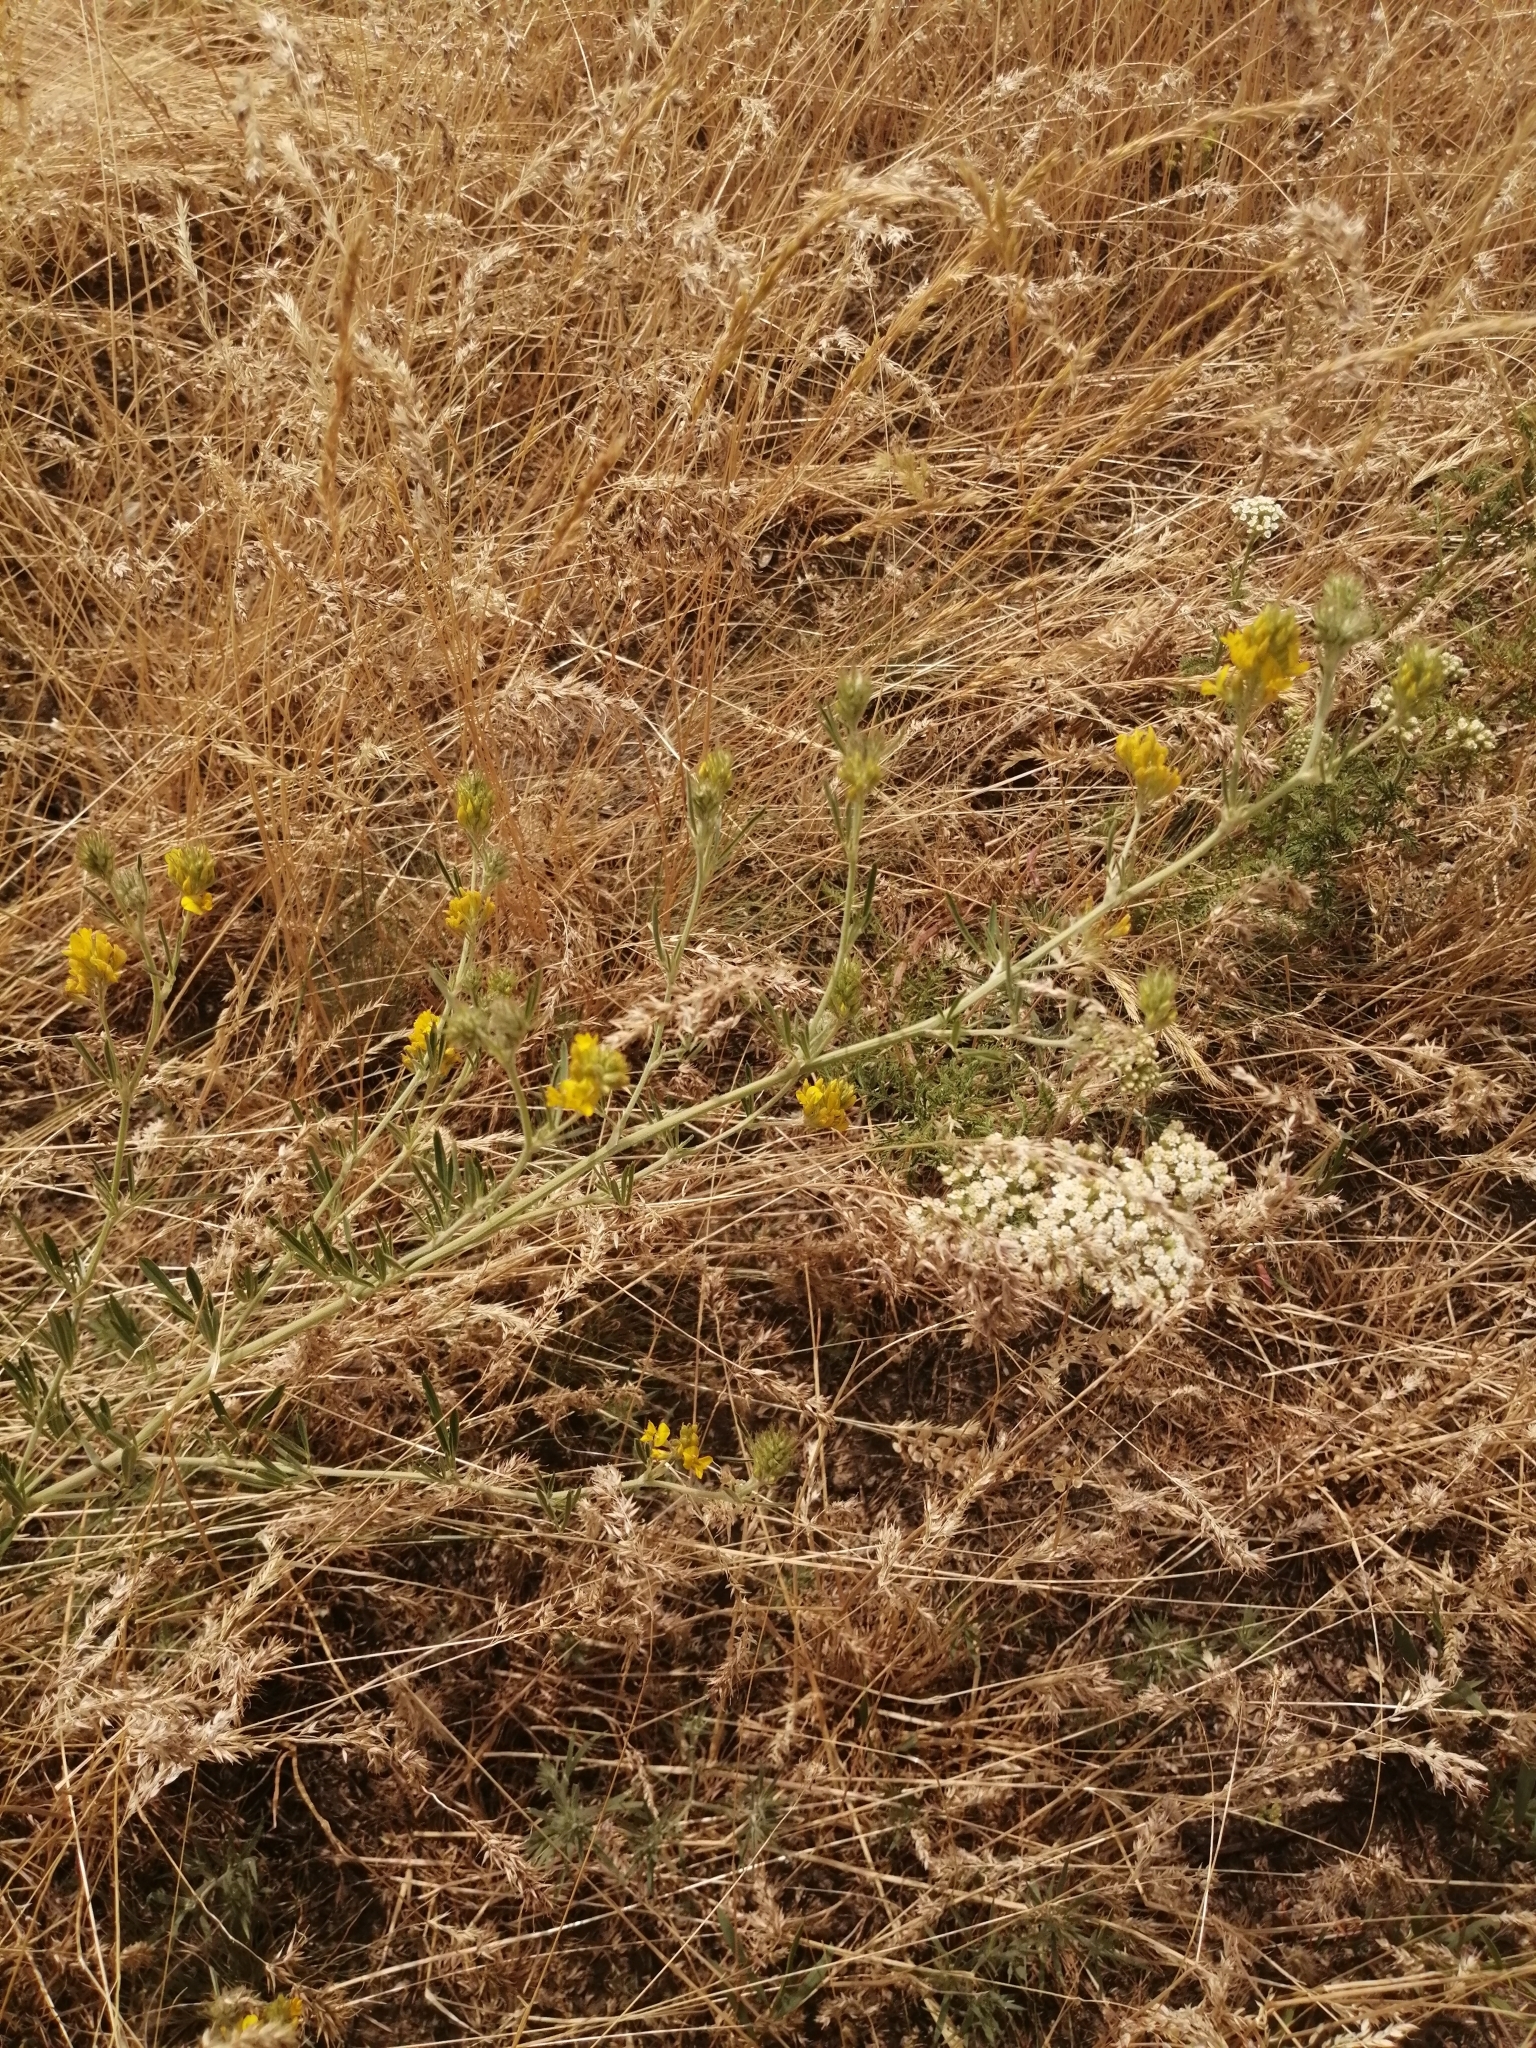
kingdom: Plantae
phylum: Tracheophyta
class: Magnoliopsida
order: Fabales
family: Fabaceae
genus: Medicago
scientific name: Medicago falcata
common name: Sickle medick
